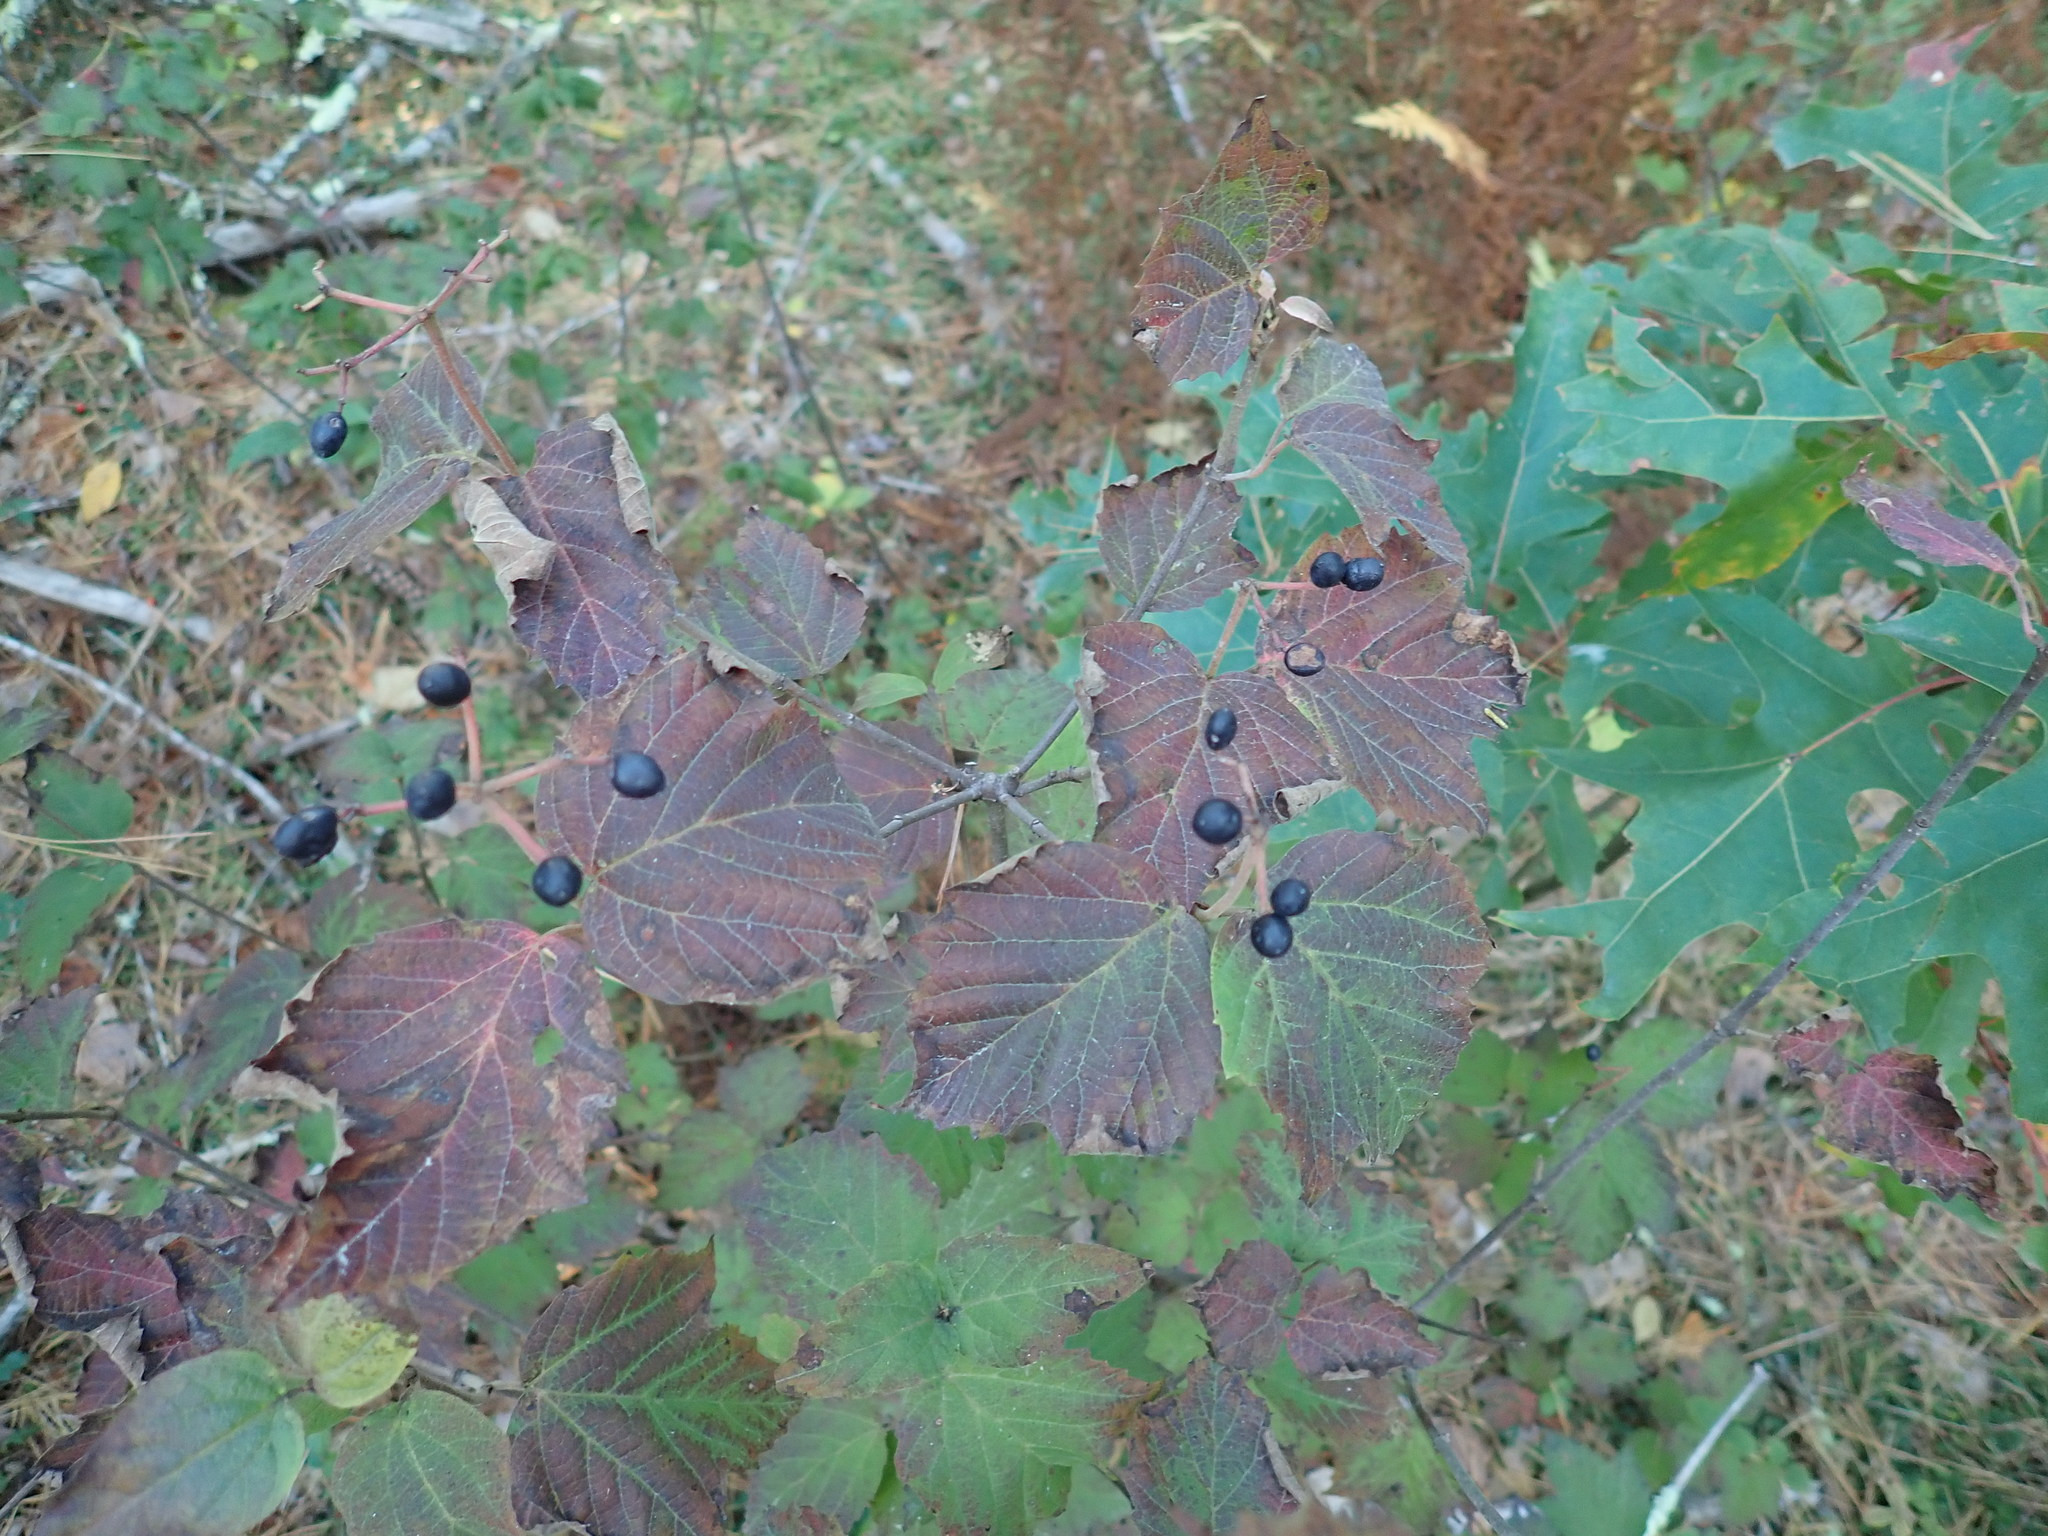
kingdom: Plantae
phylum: Tracheophyta
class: Magnoliopsida
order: Dipsacales
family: Viburnaceae
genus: Viburnum
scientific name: Viburnum acerifolium
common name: Dockmackie
